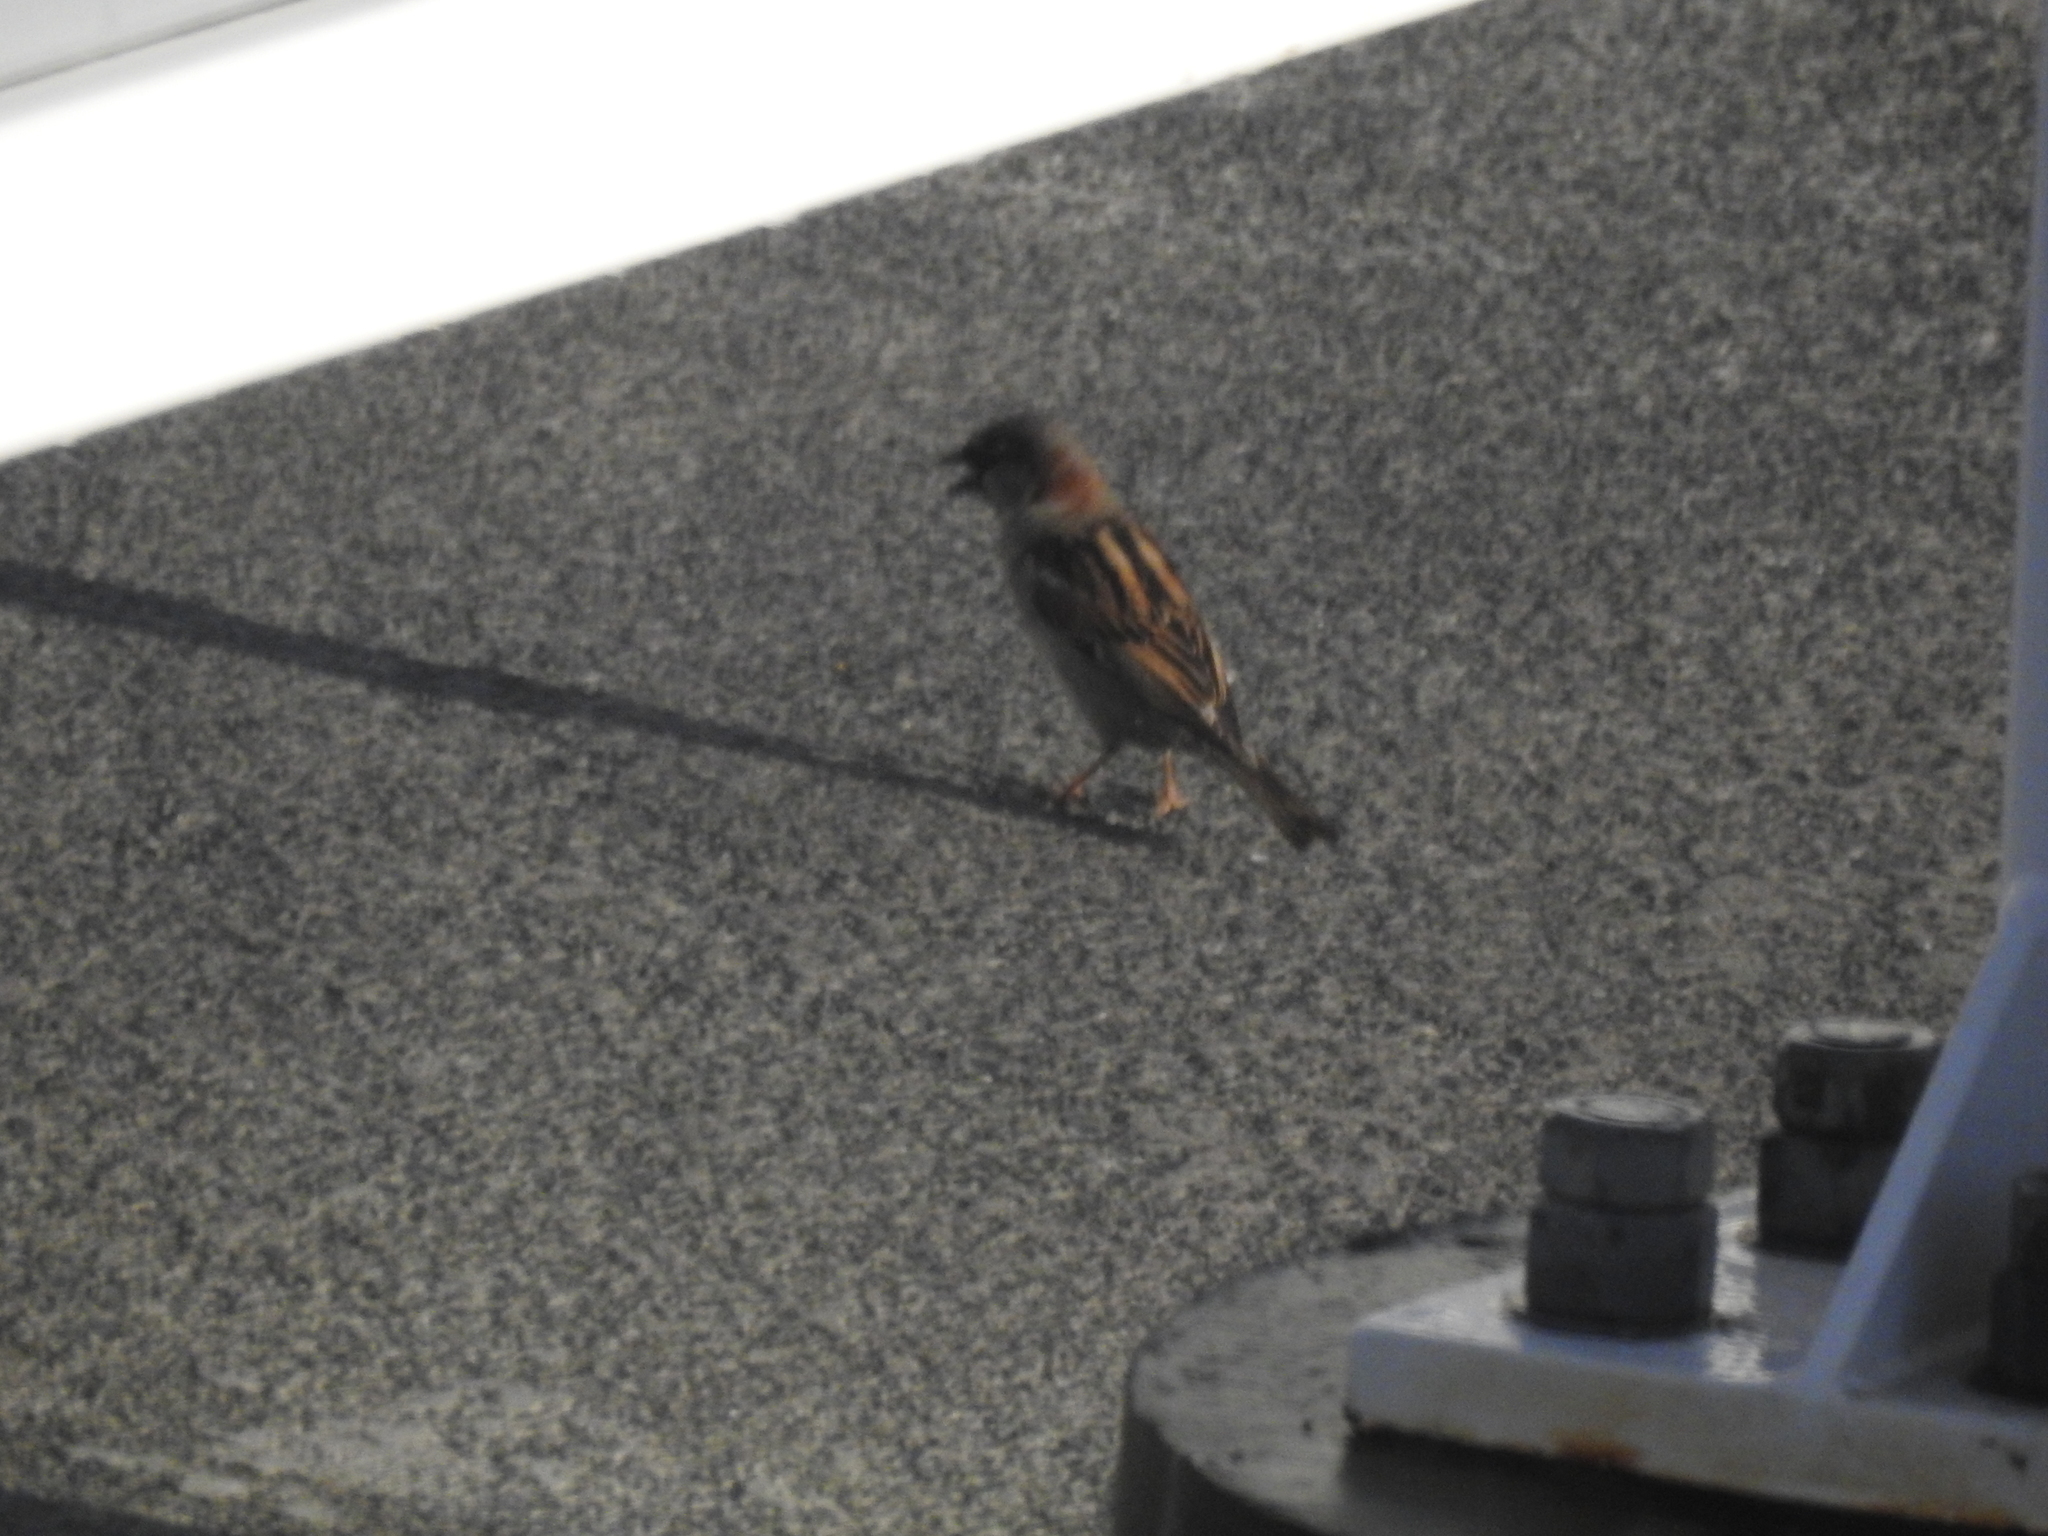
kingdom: Animalia
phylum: Chordata
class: Aves
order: Passeriformes
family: Passeridae
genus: Passer
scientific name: Passer domesticus
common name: House sparrow
